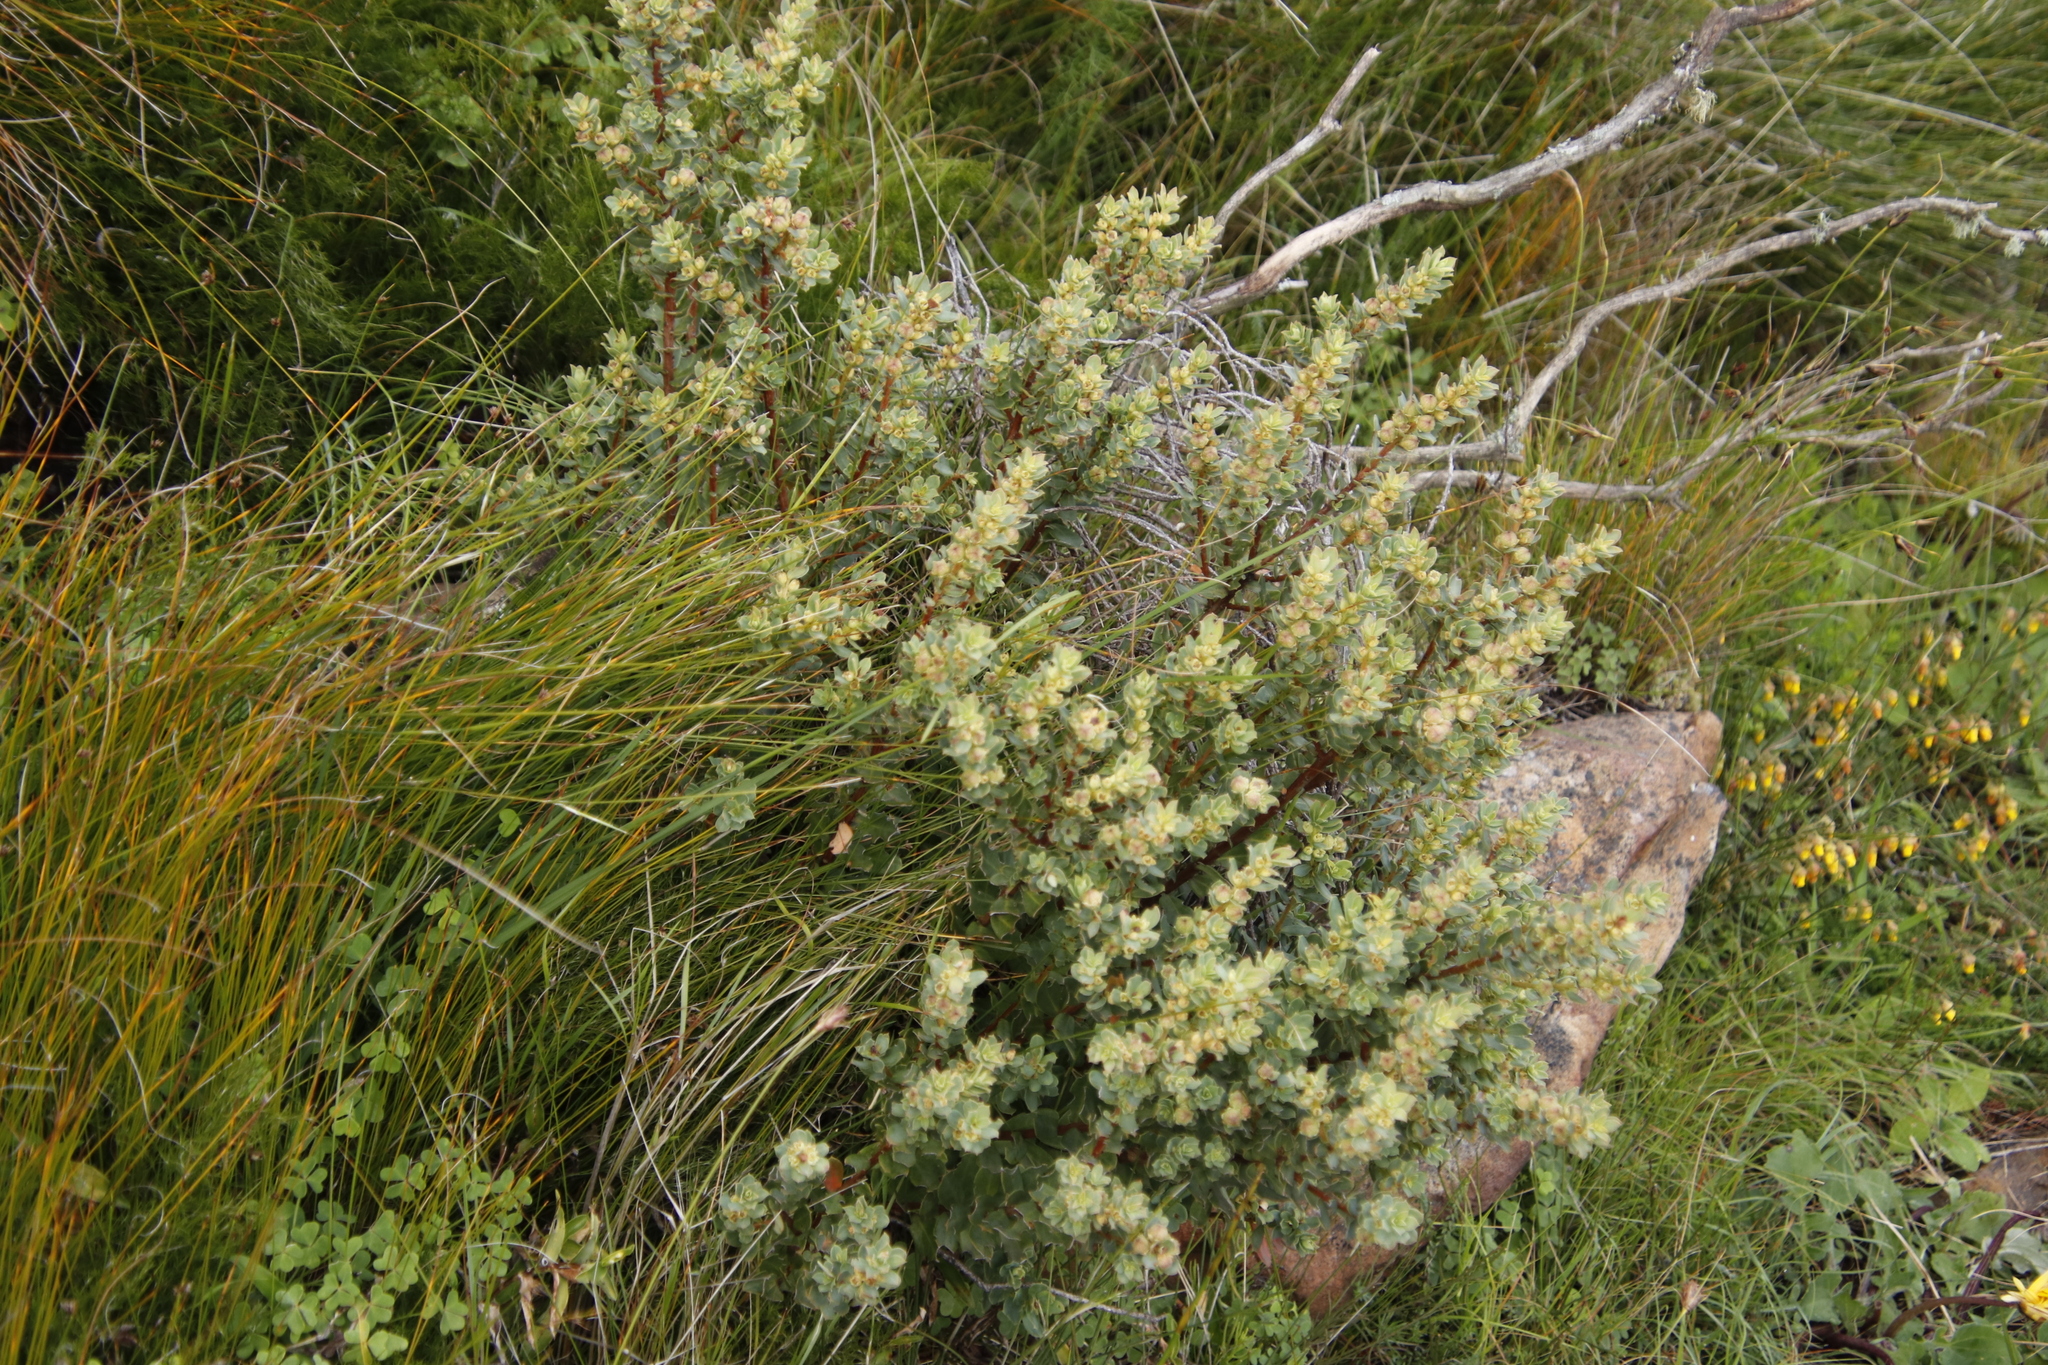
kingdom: Plantae
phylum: Tracheophyta
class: Magnoliopsida
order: Malpighiales
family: Peraceae
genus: Clutia
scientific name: Clutia alaternoides
